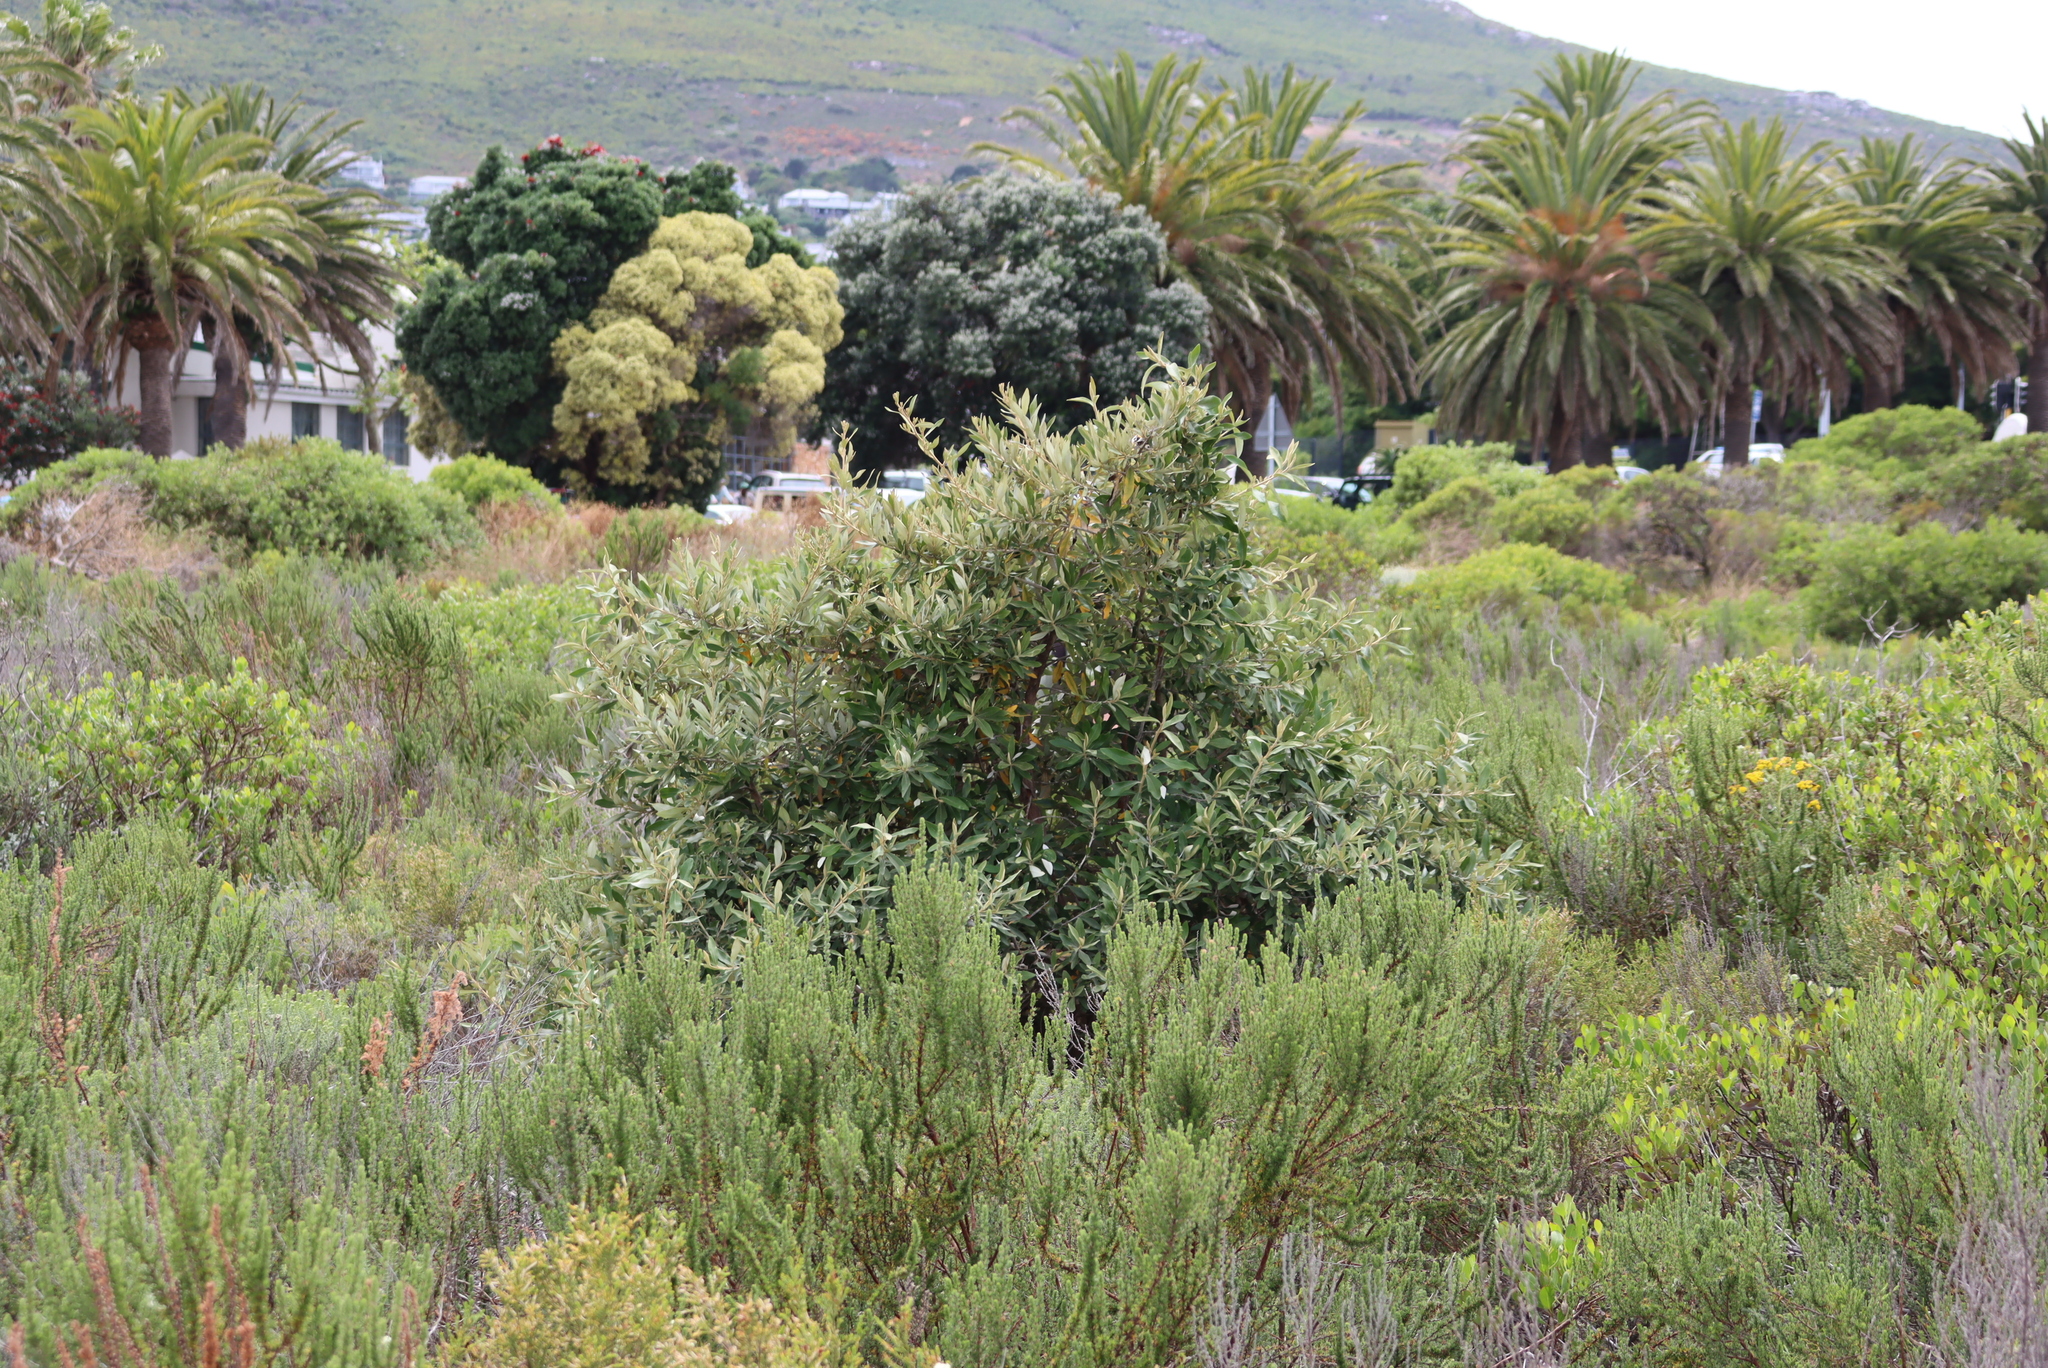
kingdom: Plantae
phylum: Tracheophyta
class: Magnoliopsida
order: Asterales
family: Asteraceae
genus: Tarchonanthus
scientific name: Tarchonanthus littoralis
